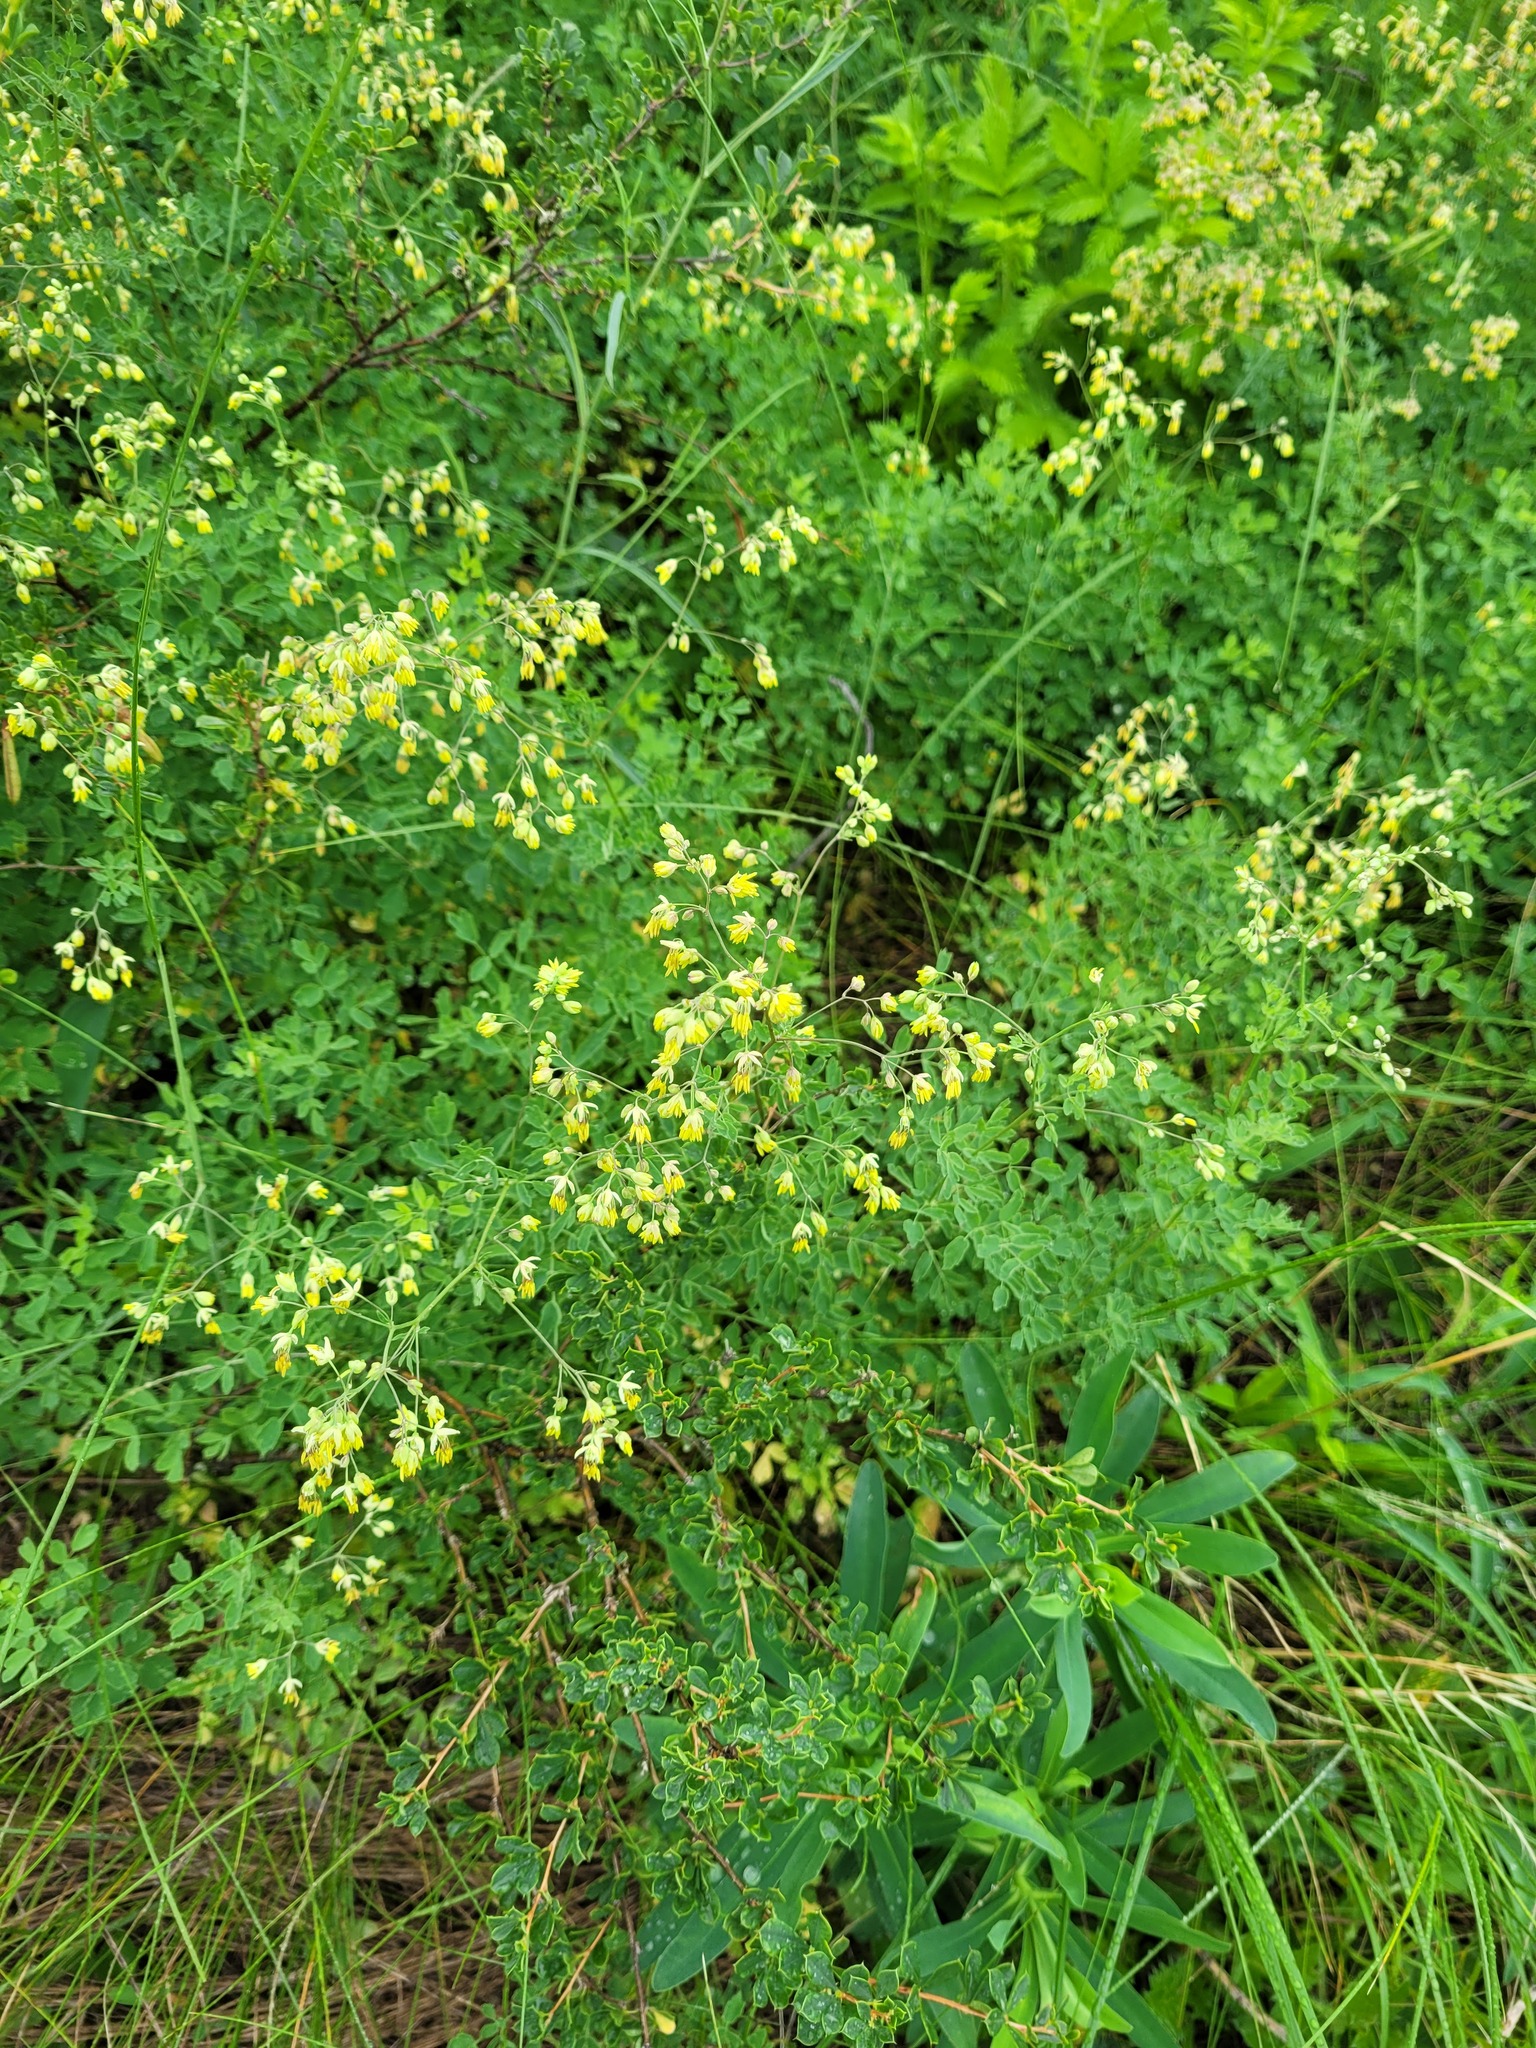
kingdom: Plantae
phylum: Tracheophyta
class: Magnoliopsida
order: Ranunculales
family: Ranunculaceae
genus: Thalictrum
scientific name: Thalictrum minus
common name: Lesser meadow-rue
